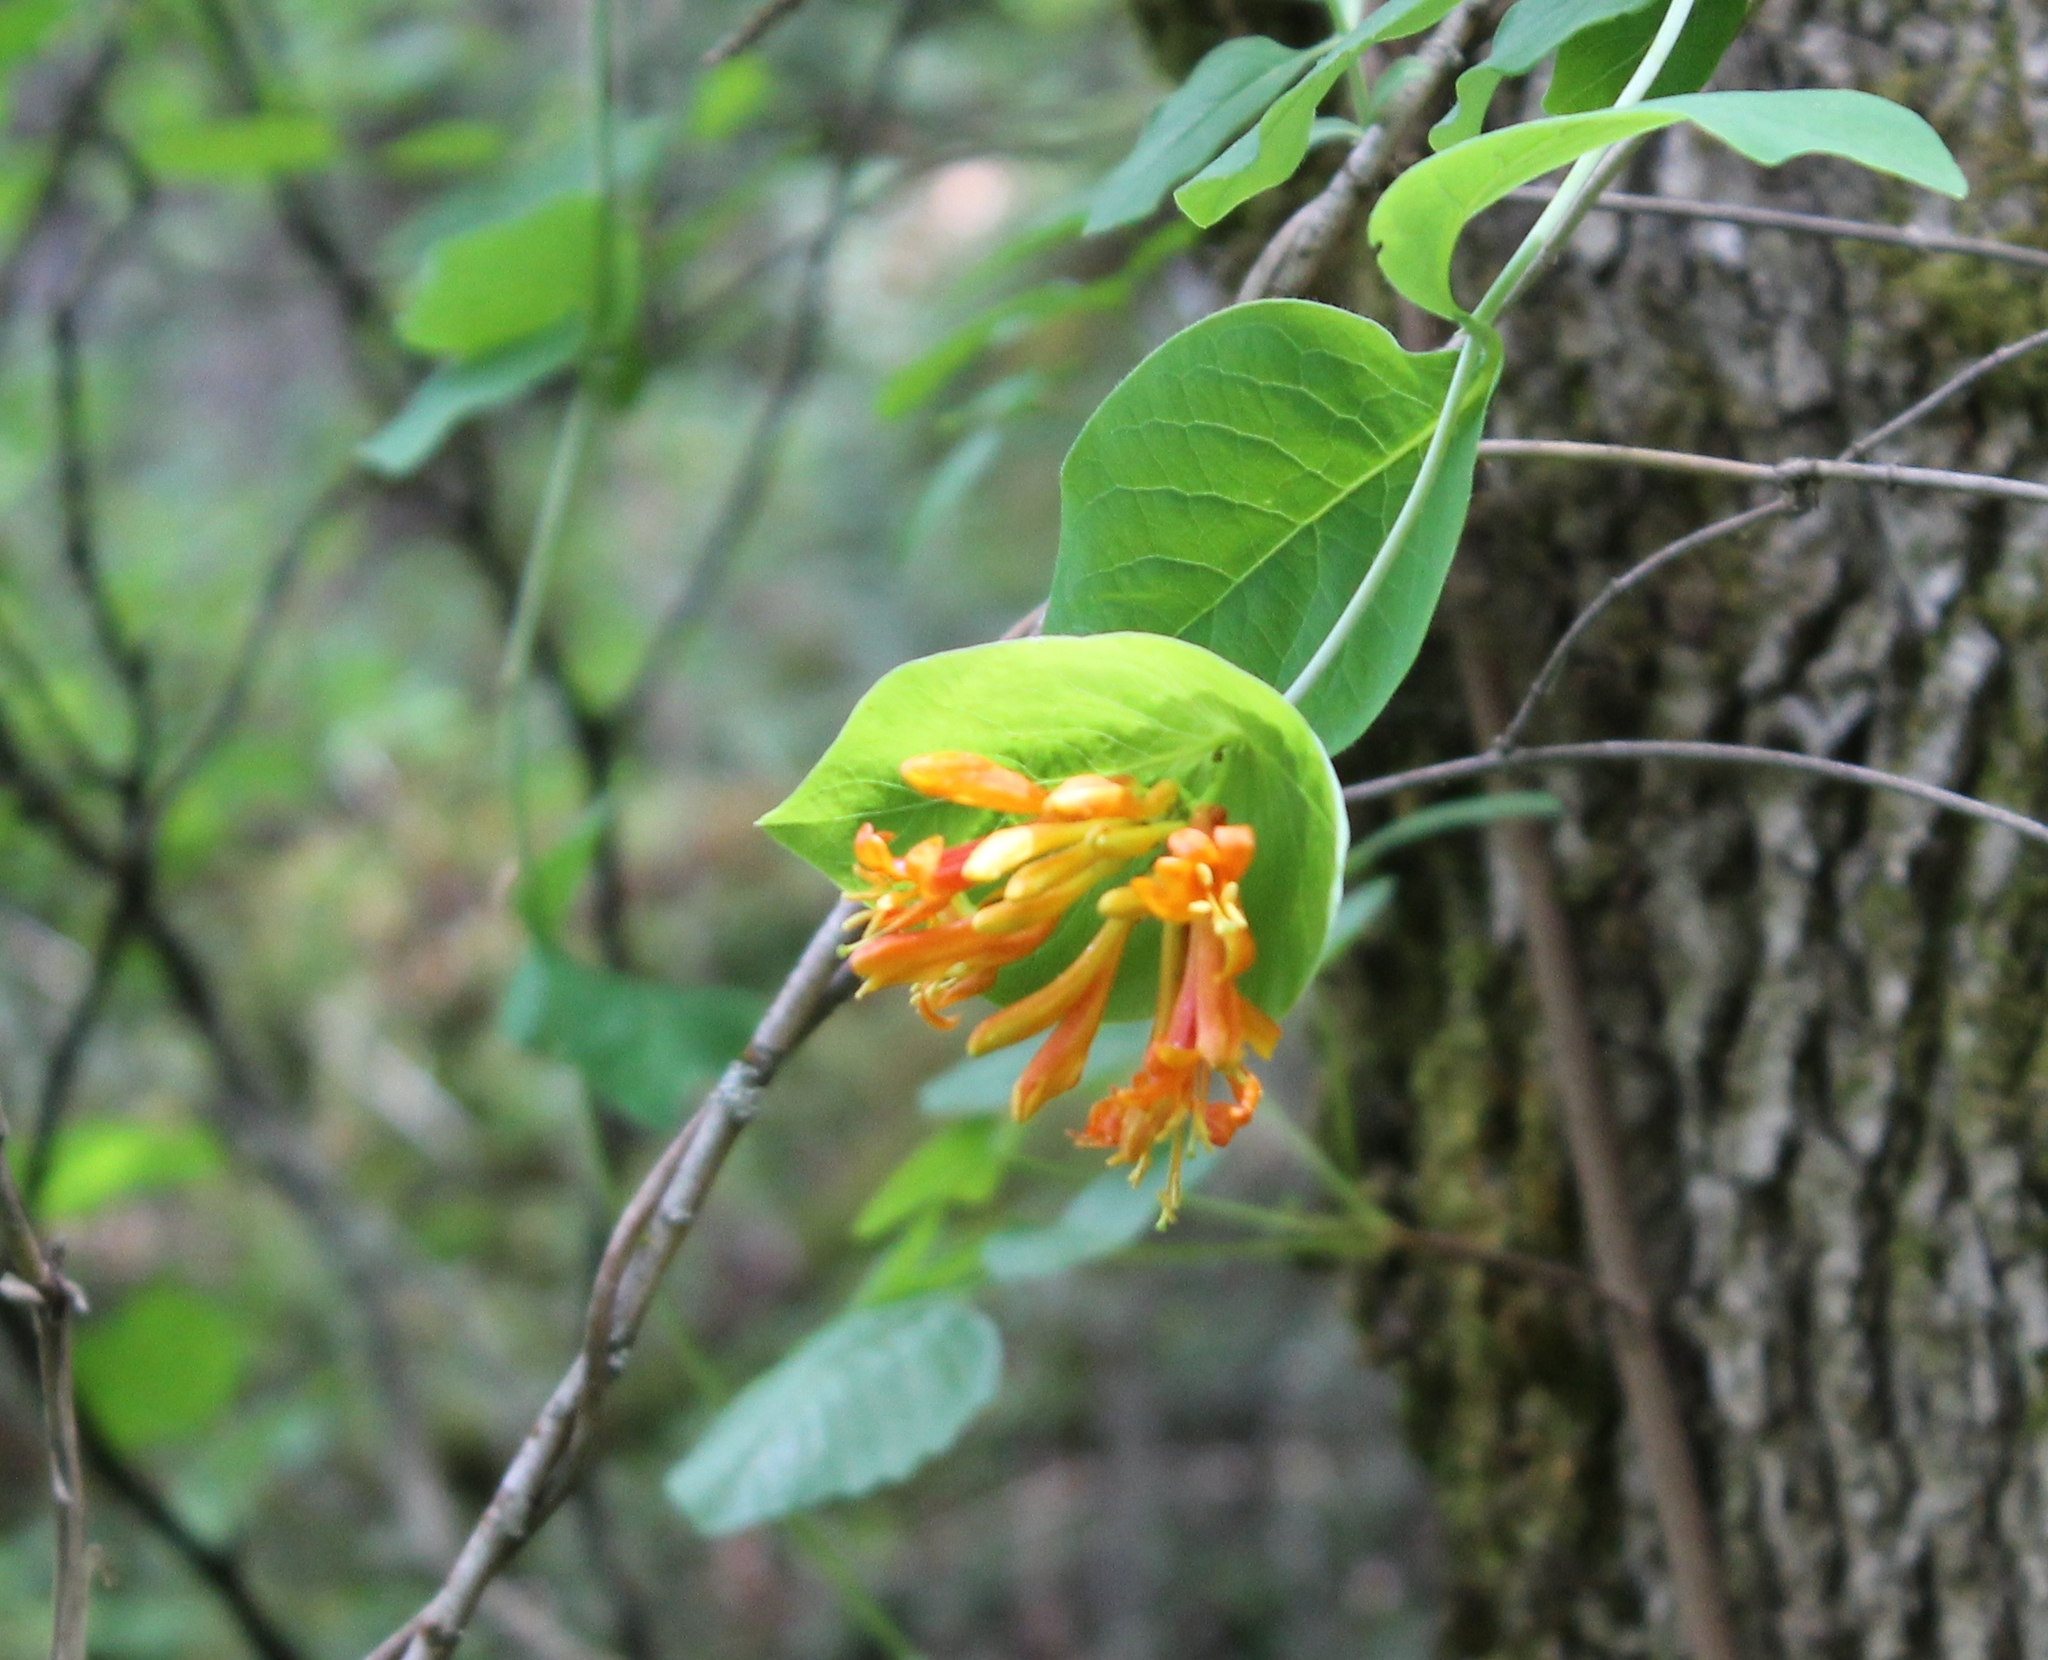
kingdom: Plantae
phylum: Tracheophyta
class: Magnoliopsida
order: Dipsacales
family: Caprifoliaceae
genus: Lonicera
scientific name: Lonicera ciliosa
